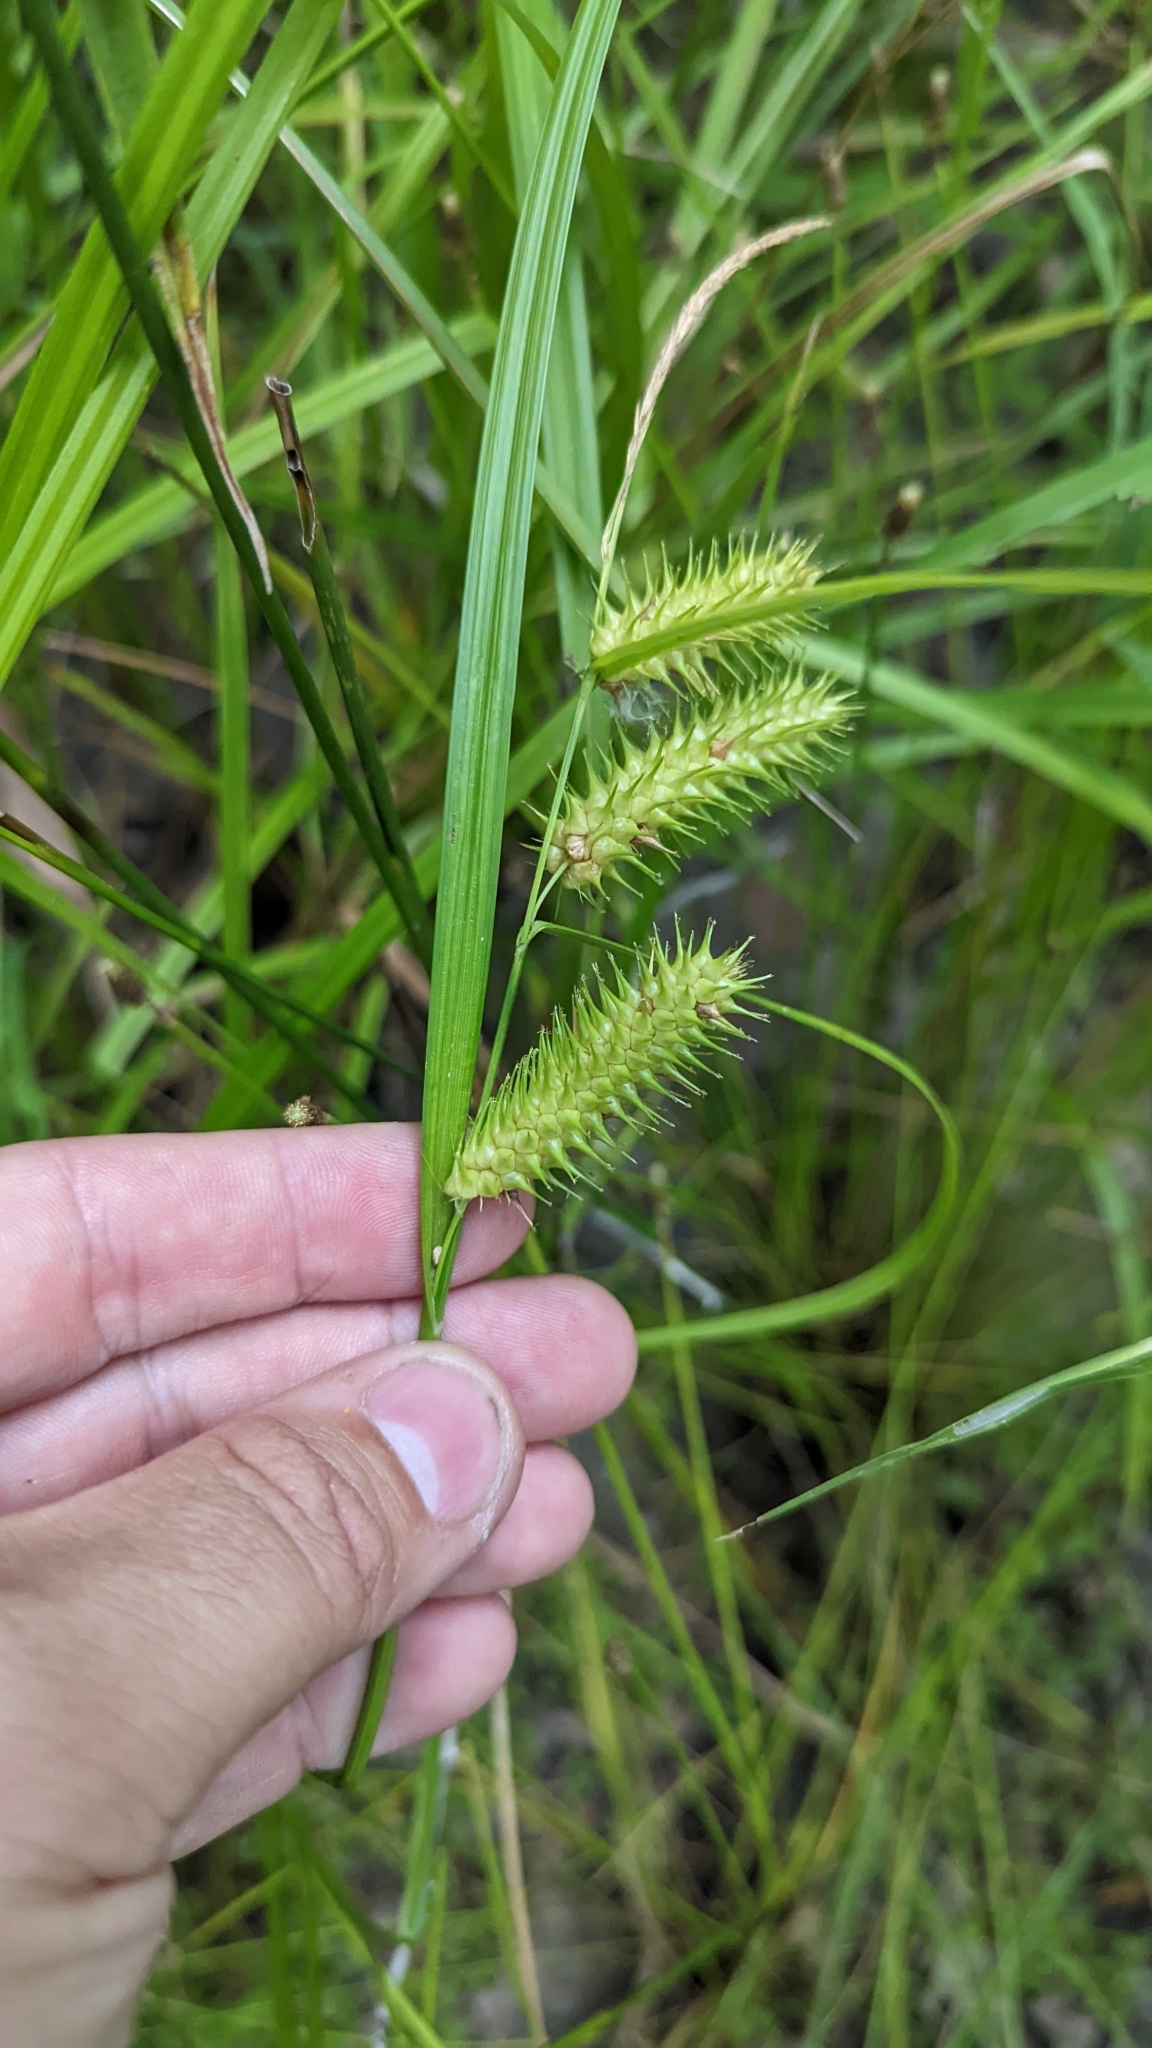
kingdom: Plantae
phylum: Tracheophyta
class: Liliopsida
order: Poales
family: Cyperaceae
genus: Carex
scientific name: Carex lurida
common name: Sallow sedge
